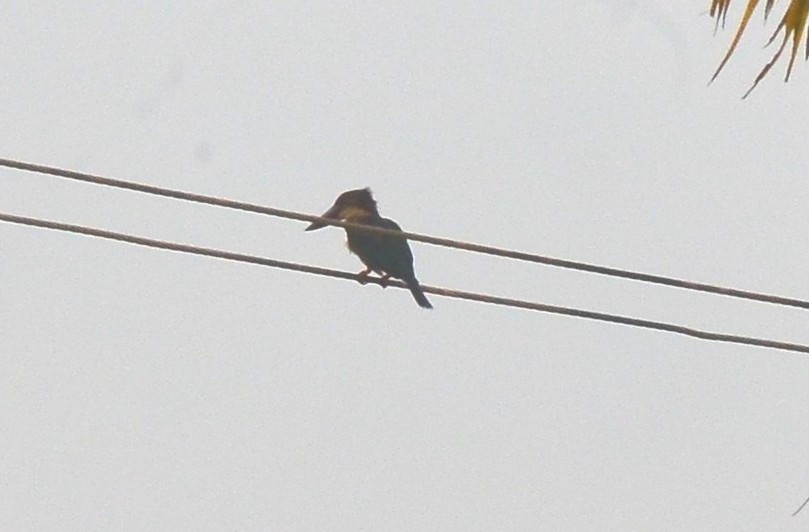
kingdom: Animalia
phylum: Chordata
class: Aves
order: Coraciiformes
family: Alcedinidae
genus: Pelargopsis
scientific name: Pelargopsis capensis
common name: Stork-billed kingfisher
